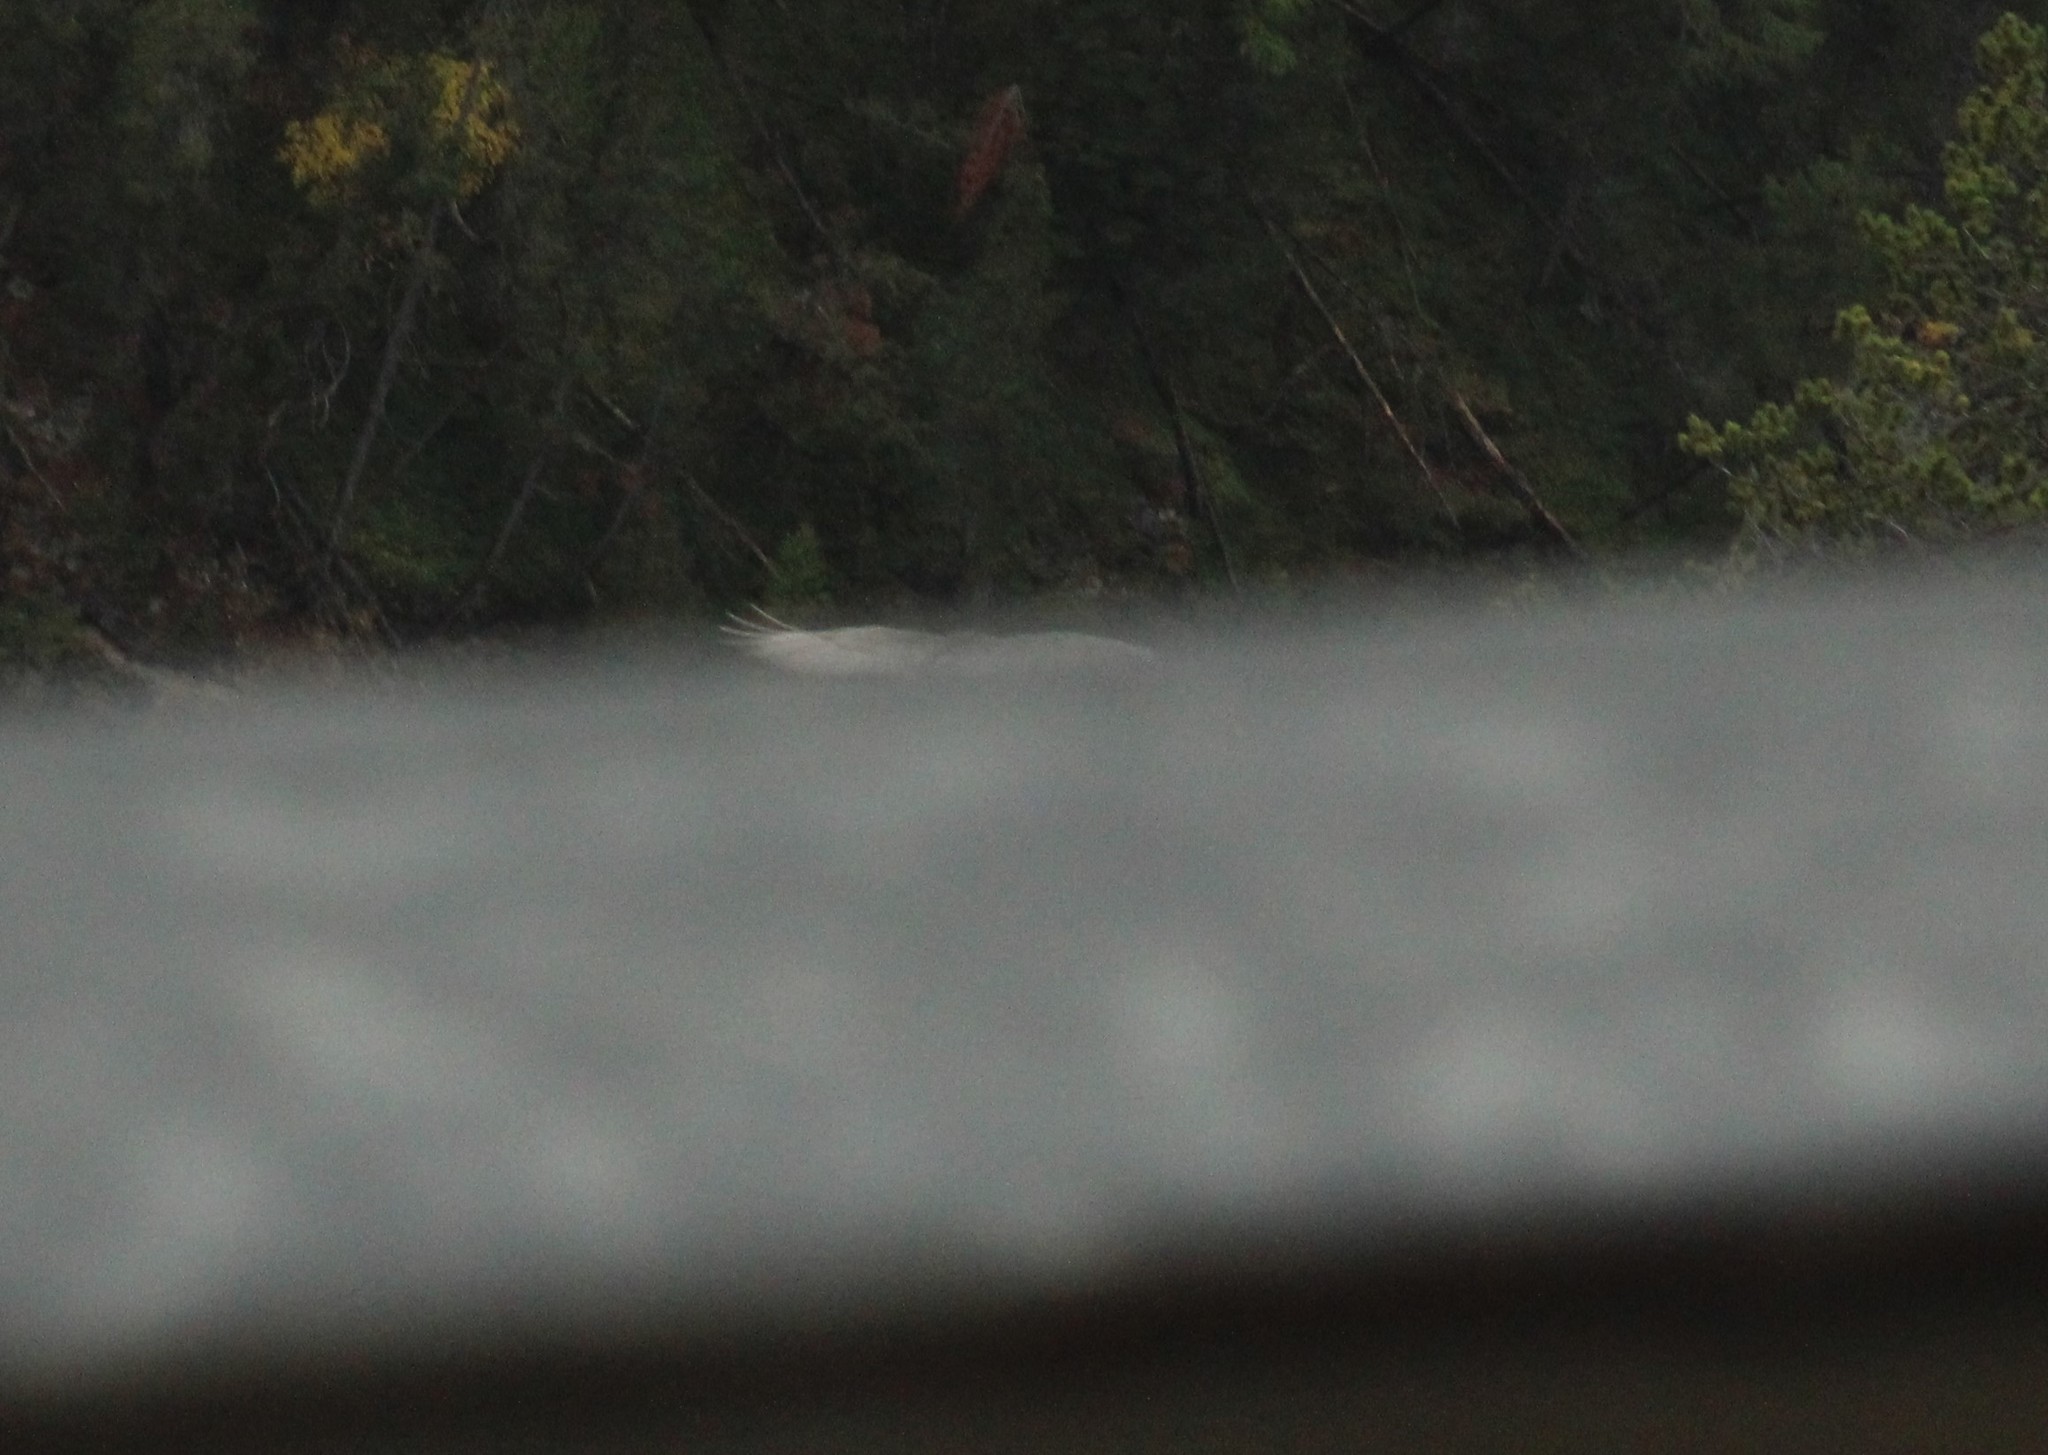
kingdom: Animalia
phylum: Chordata
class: Aves
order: Accipitriformes
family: Accipitridae
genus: Gypaetus
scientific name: Gypaetus barbatus
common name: Bearded vulture
